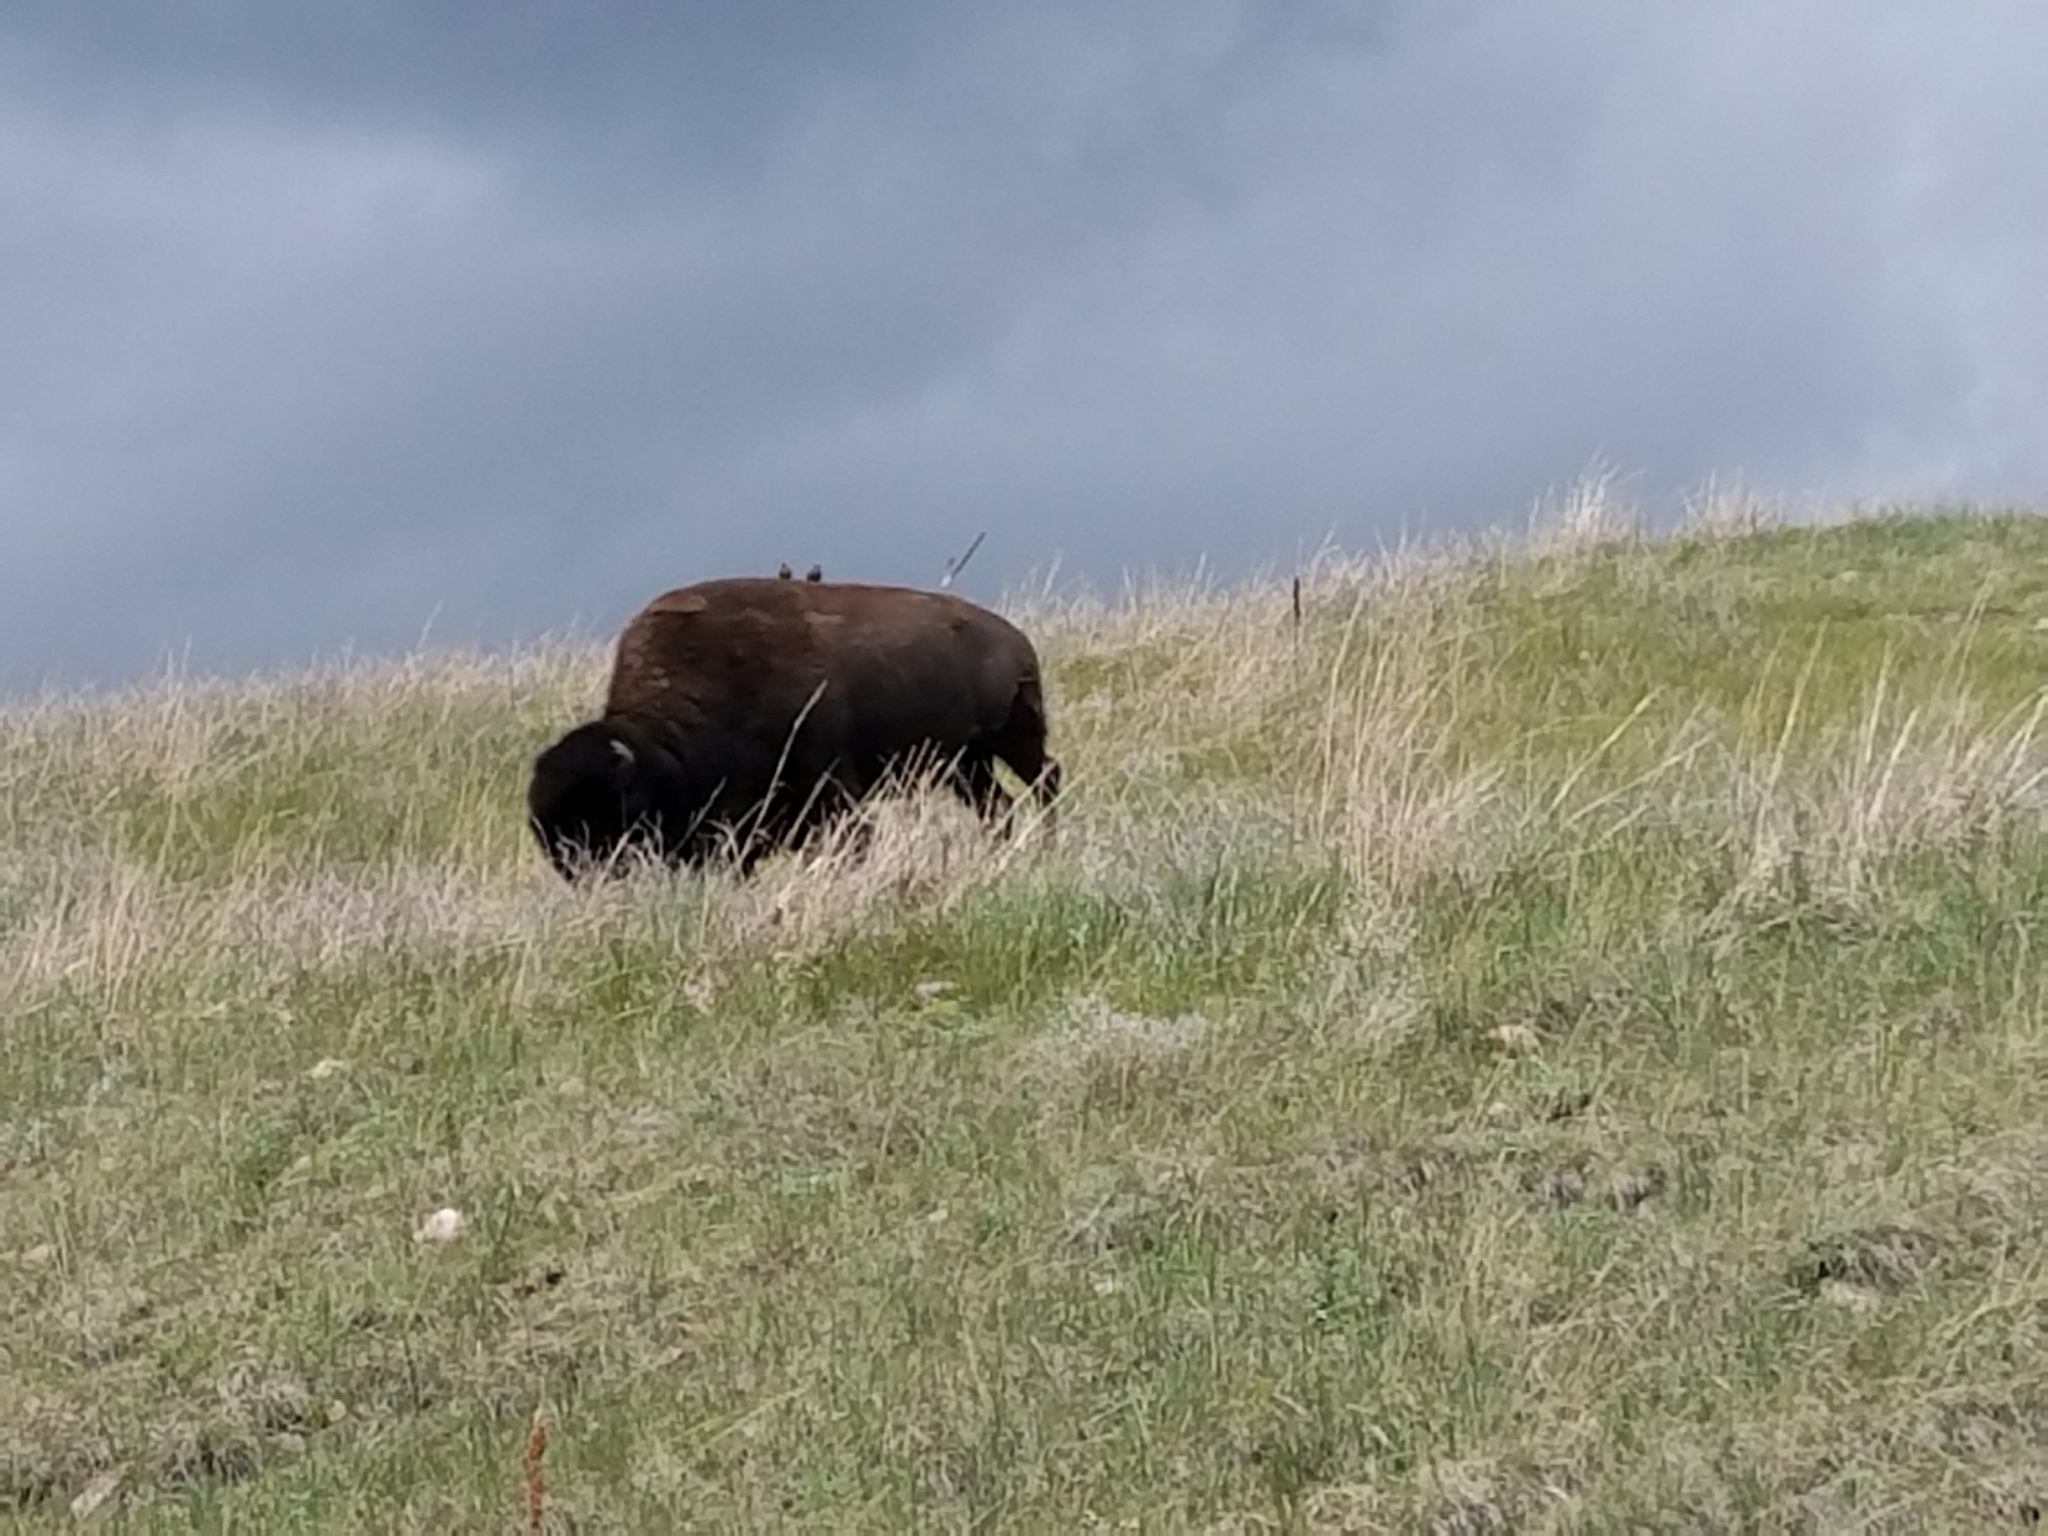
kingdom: Animalia
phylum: Chordata
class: Mammalia
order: Artiodactyla
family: Bovidae
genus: Bison
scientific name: Bison bison
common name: American bison
